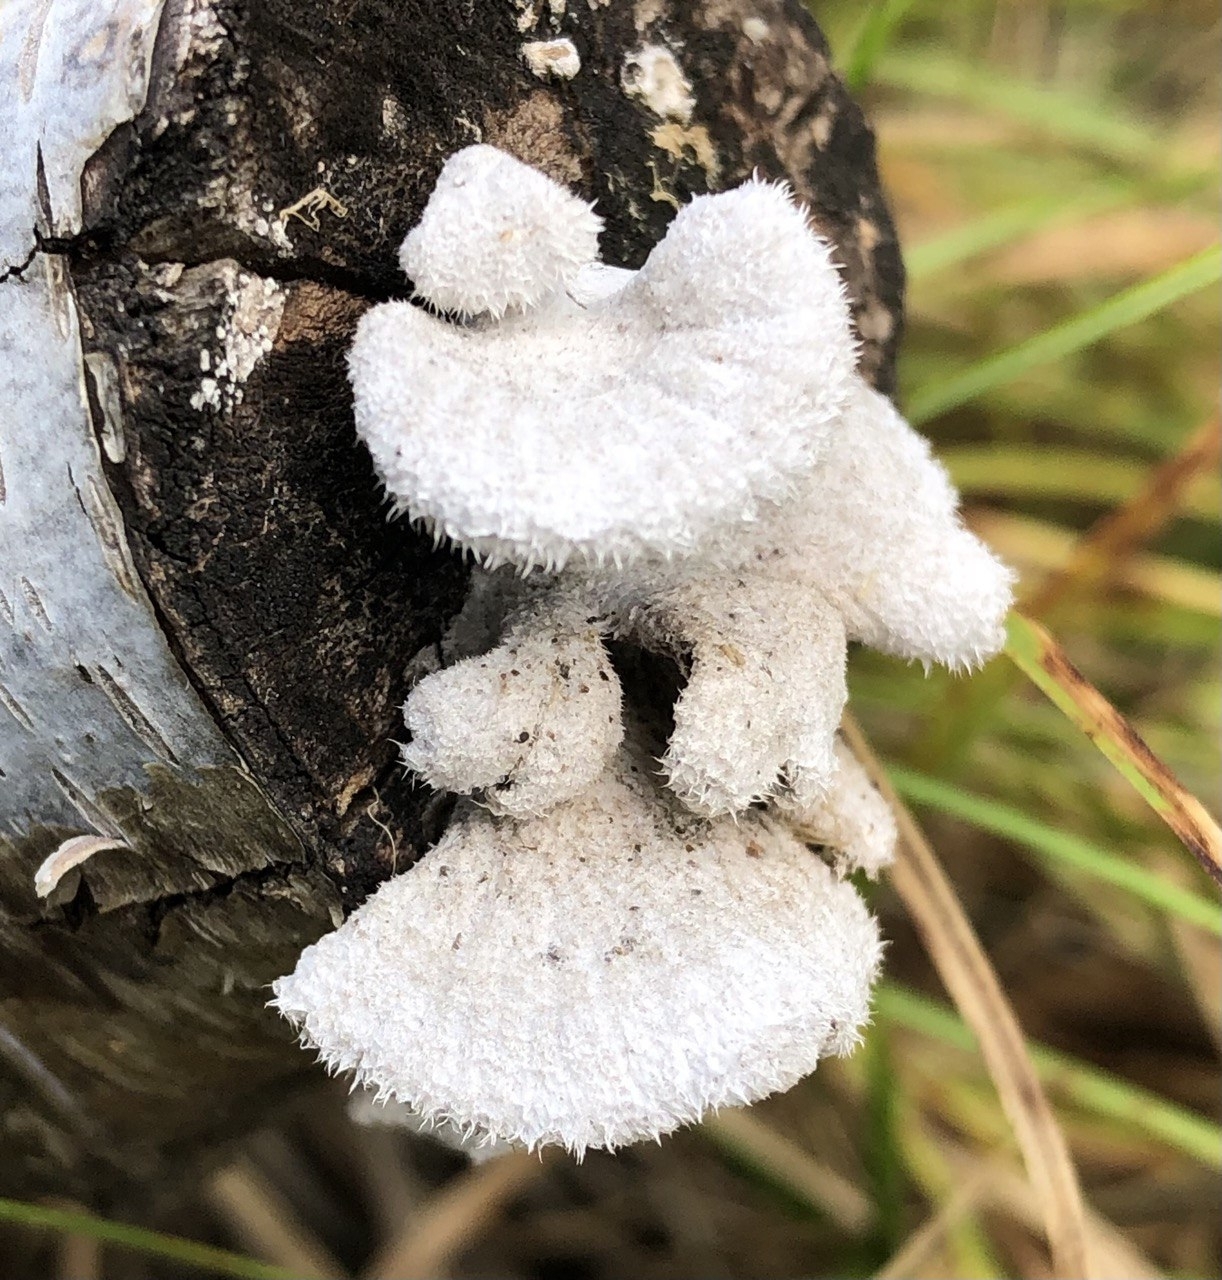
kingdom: Fungi
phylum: Basidiomycota
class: Agaricomycetes
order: Agaricales
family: Schizophyllaceae
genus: Schizophyllum
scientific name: Schizophyllum commune
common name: Common porecrust
